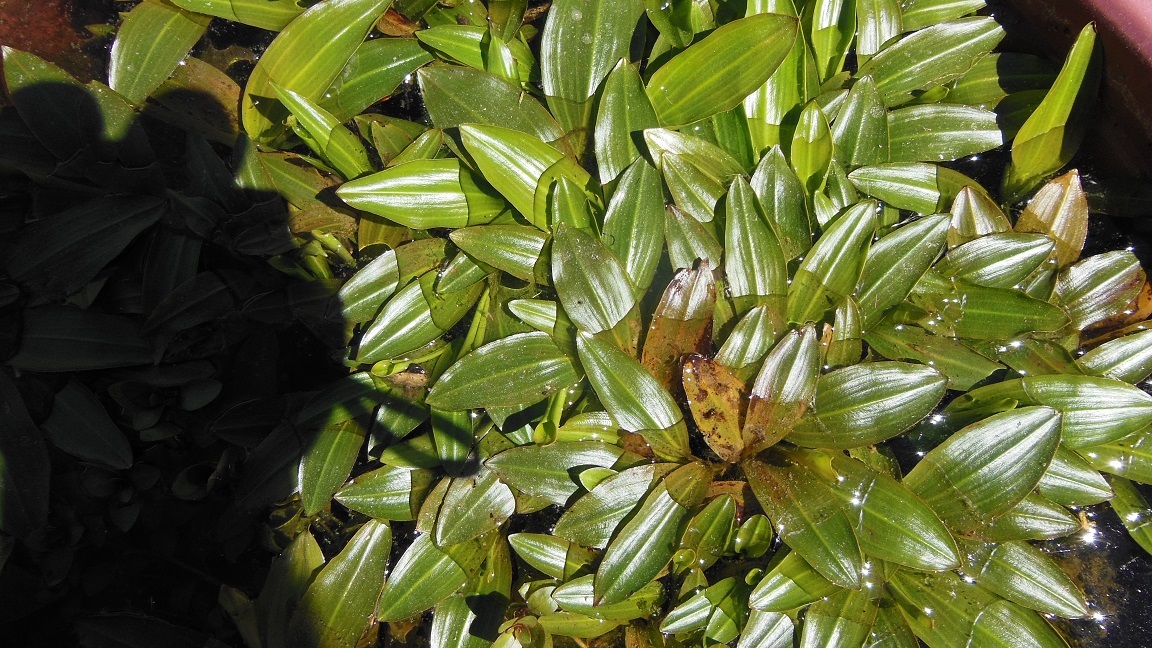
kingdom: Plantae
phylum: Tracheophyta
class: Liliopsida
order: Alismatales
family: Potamogetonaceae
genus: Potamogeton
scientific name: Potamogeton nodosus
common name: Loddon pondweed
